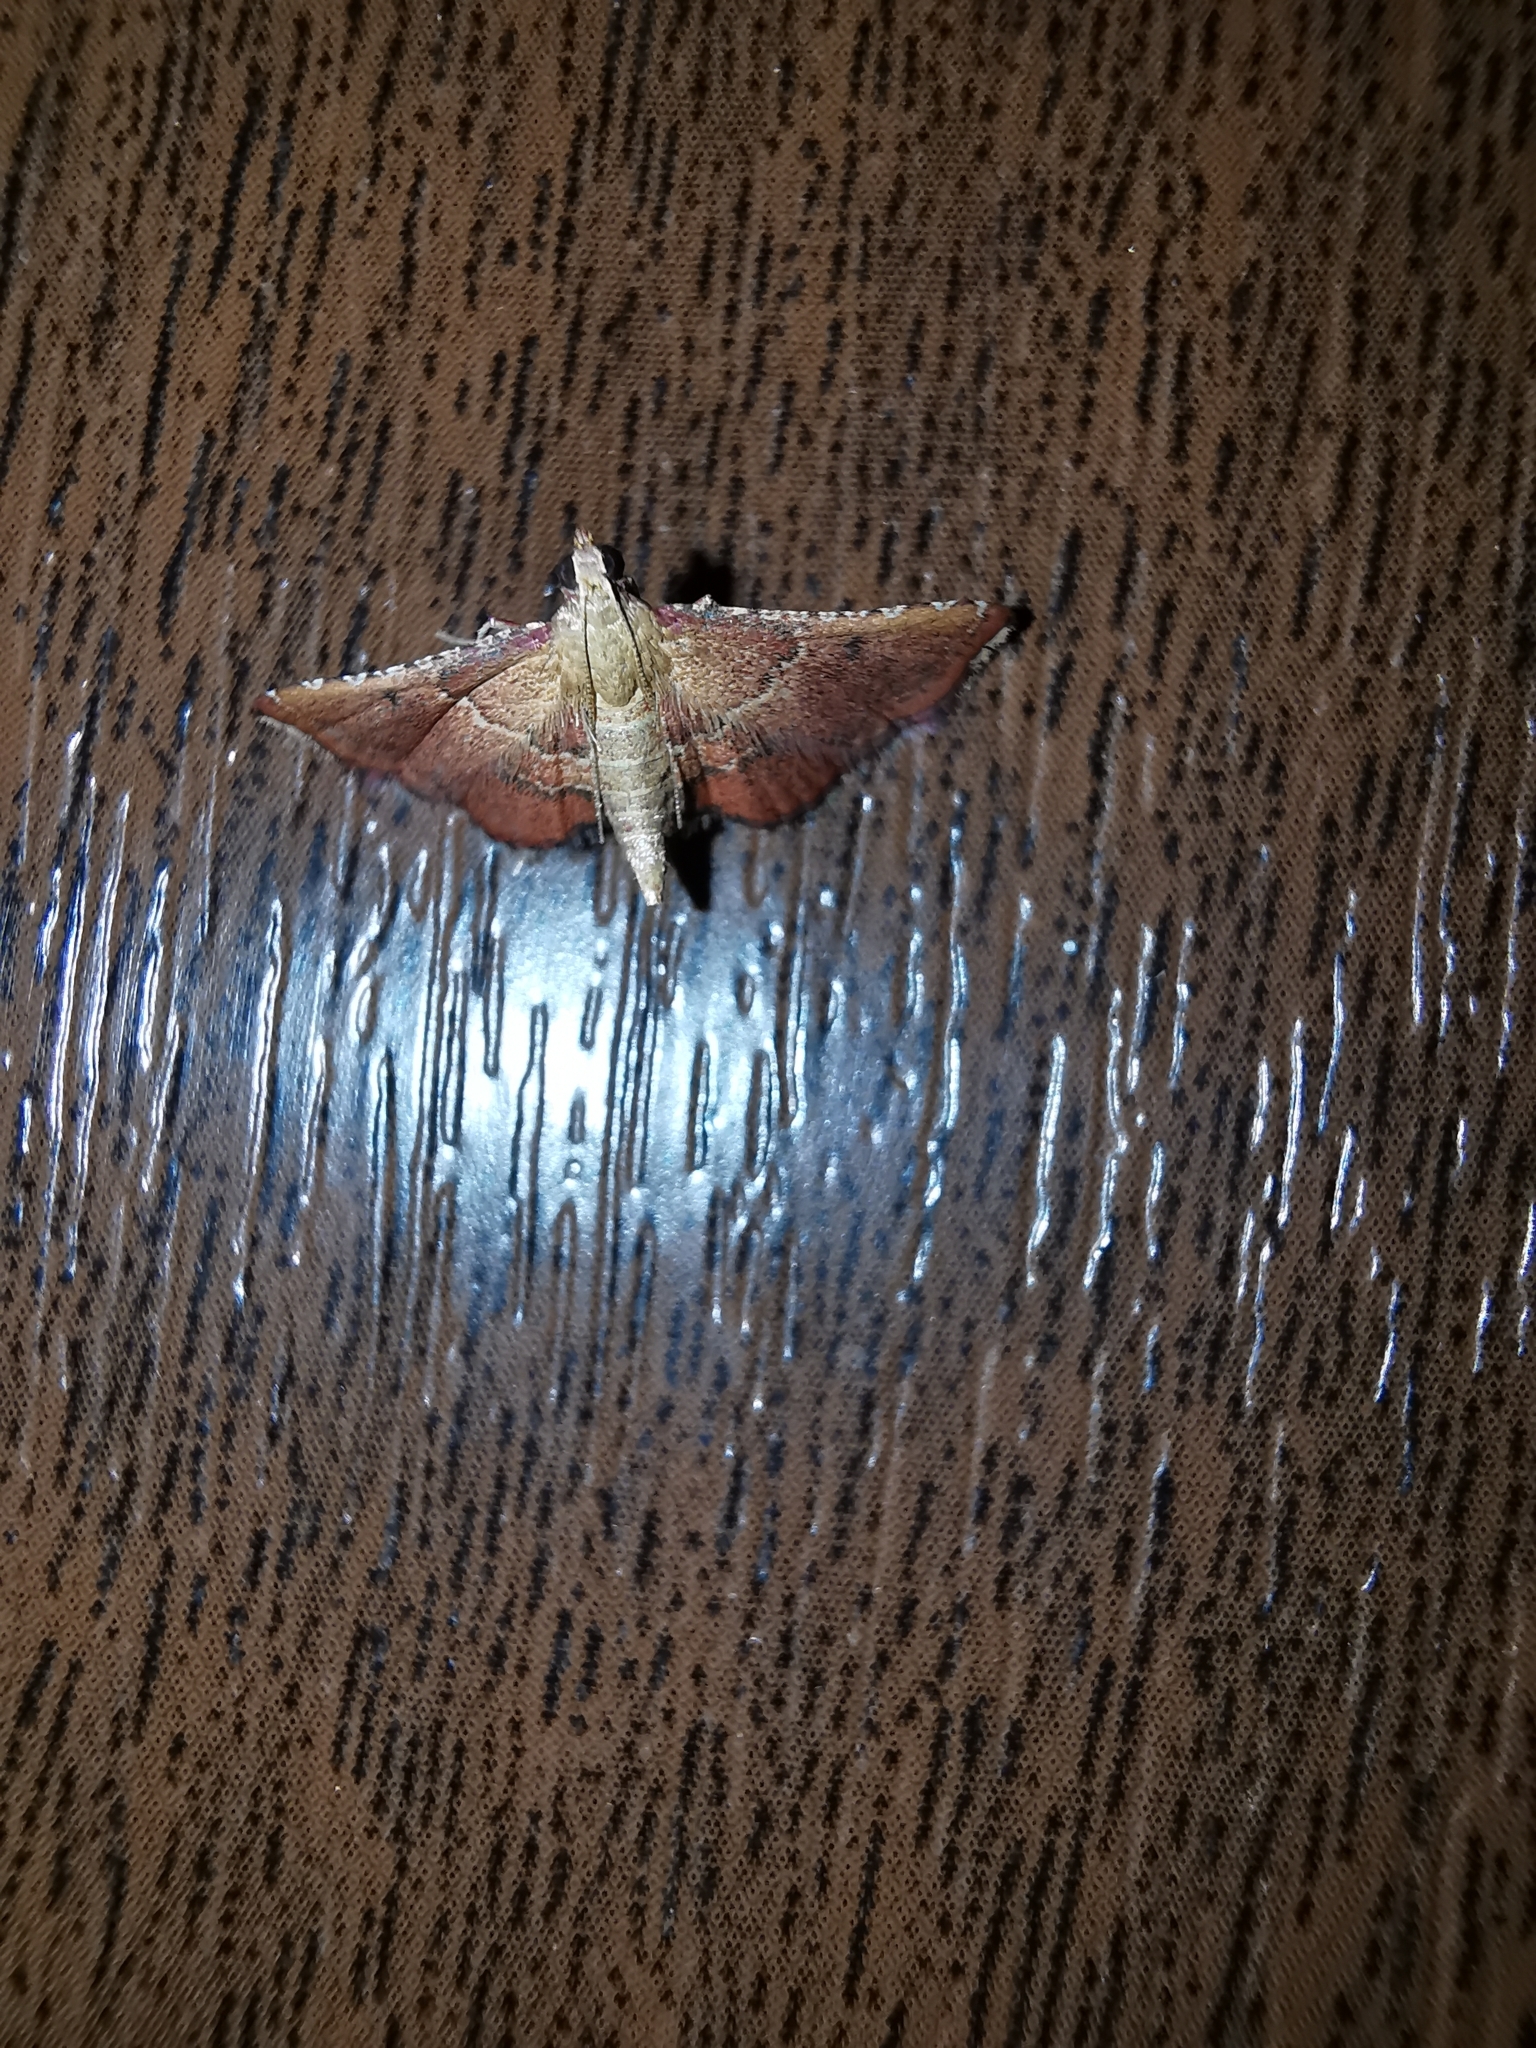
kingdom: Animalia
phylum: Arthropoda
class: Insecta
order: Lepidoptera
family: Pyralidae
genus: Endotricha
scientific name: Endotricha flammealis
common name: Rosy tabby
